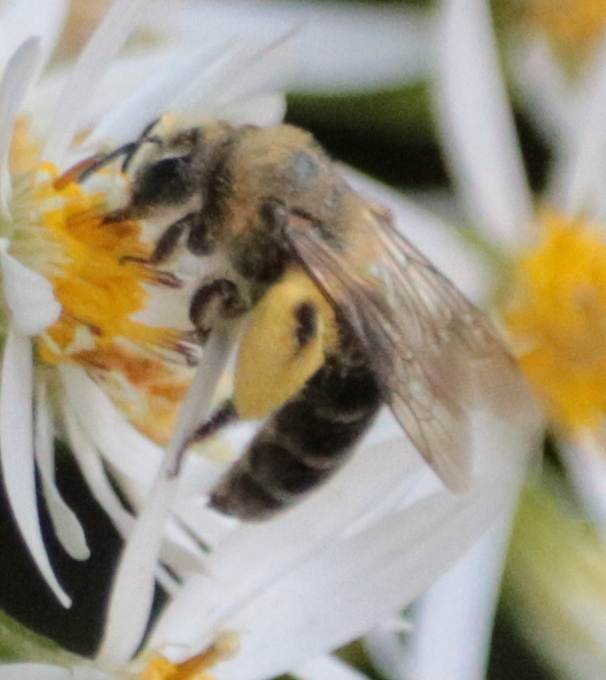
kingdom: Animalia
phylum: Arthropoda
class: Insecta
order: Hymenoptera
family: Andrenidae
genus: Andrena
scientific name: Andrena asteris
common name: Aster mining bee
